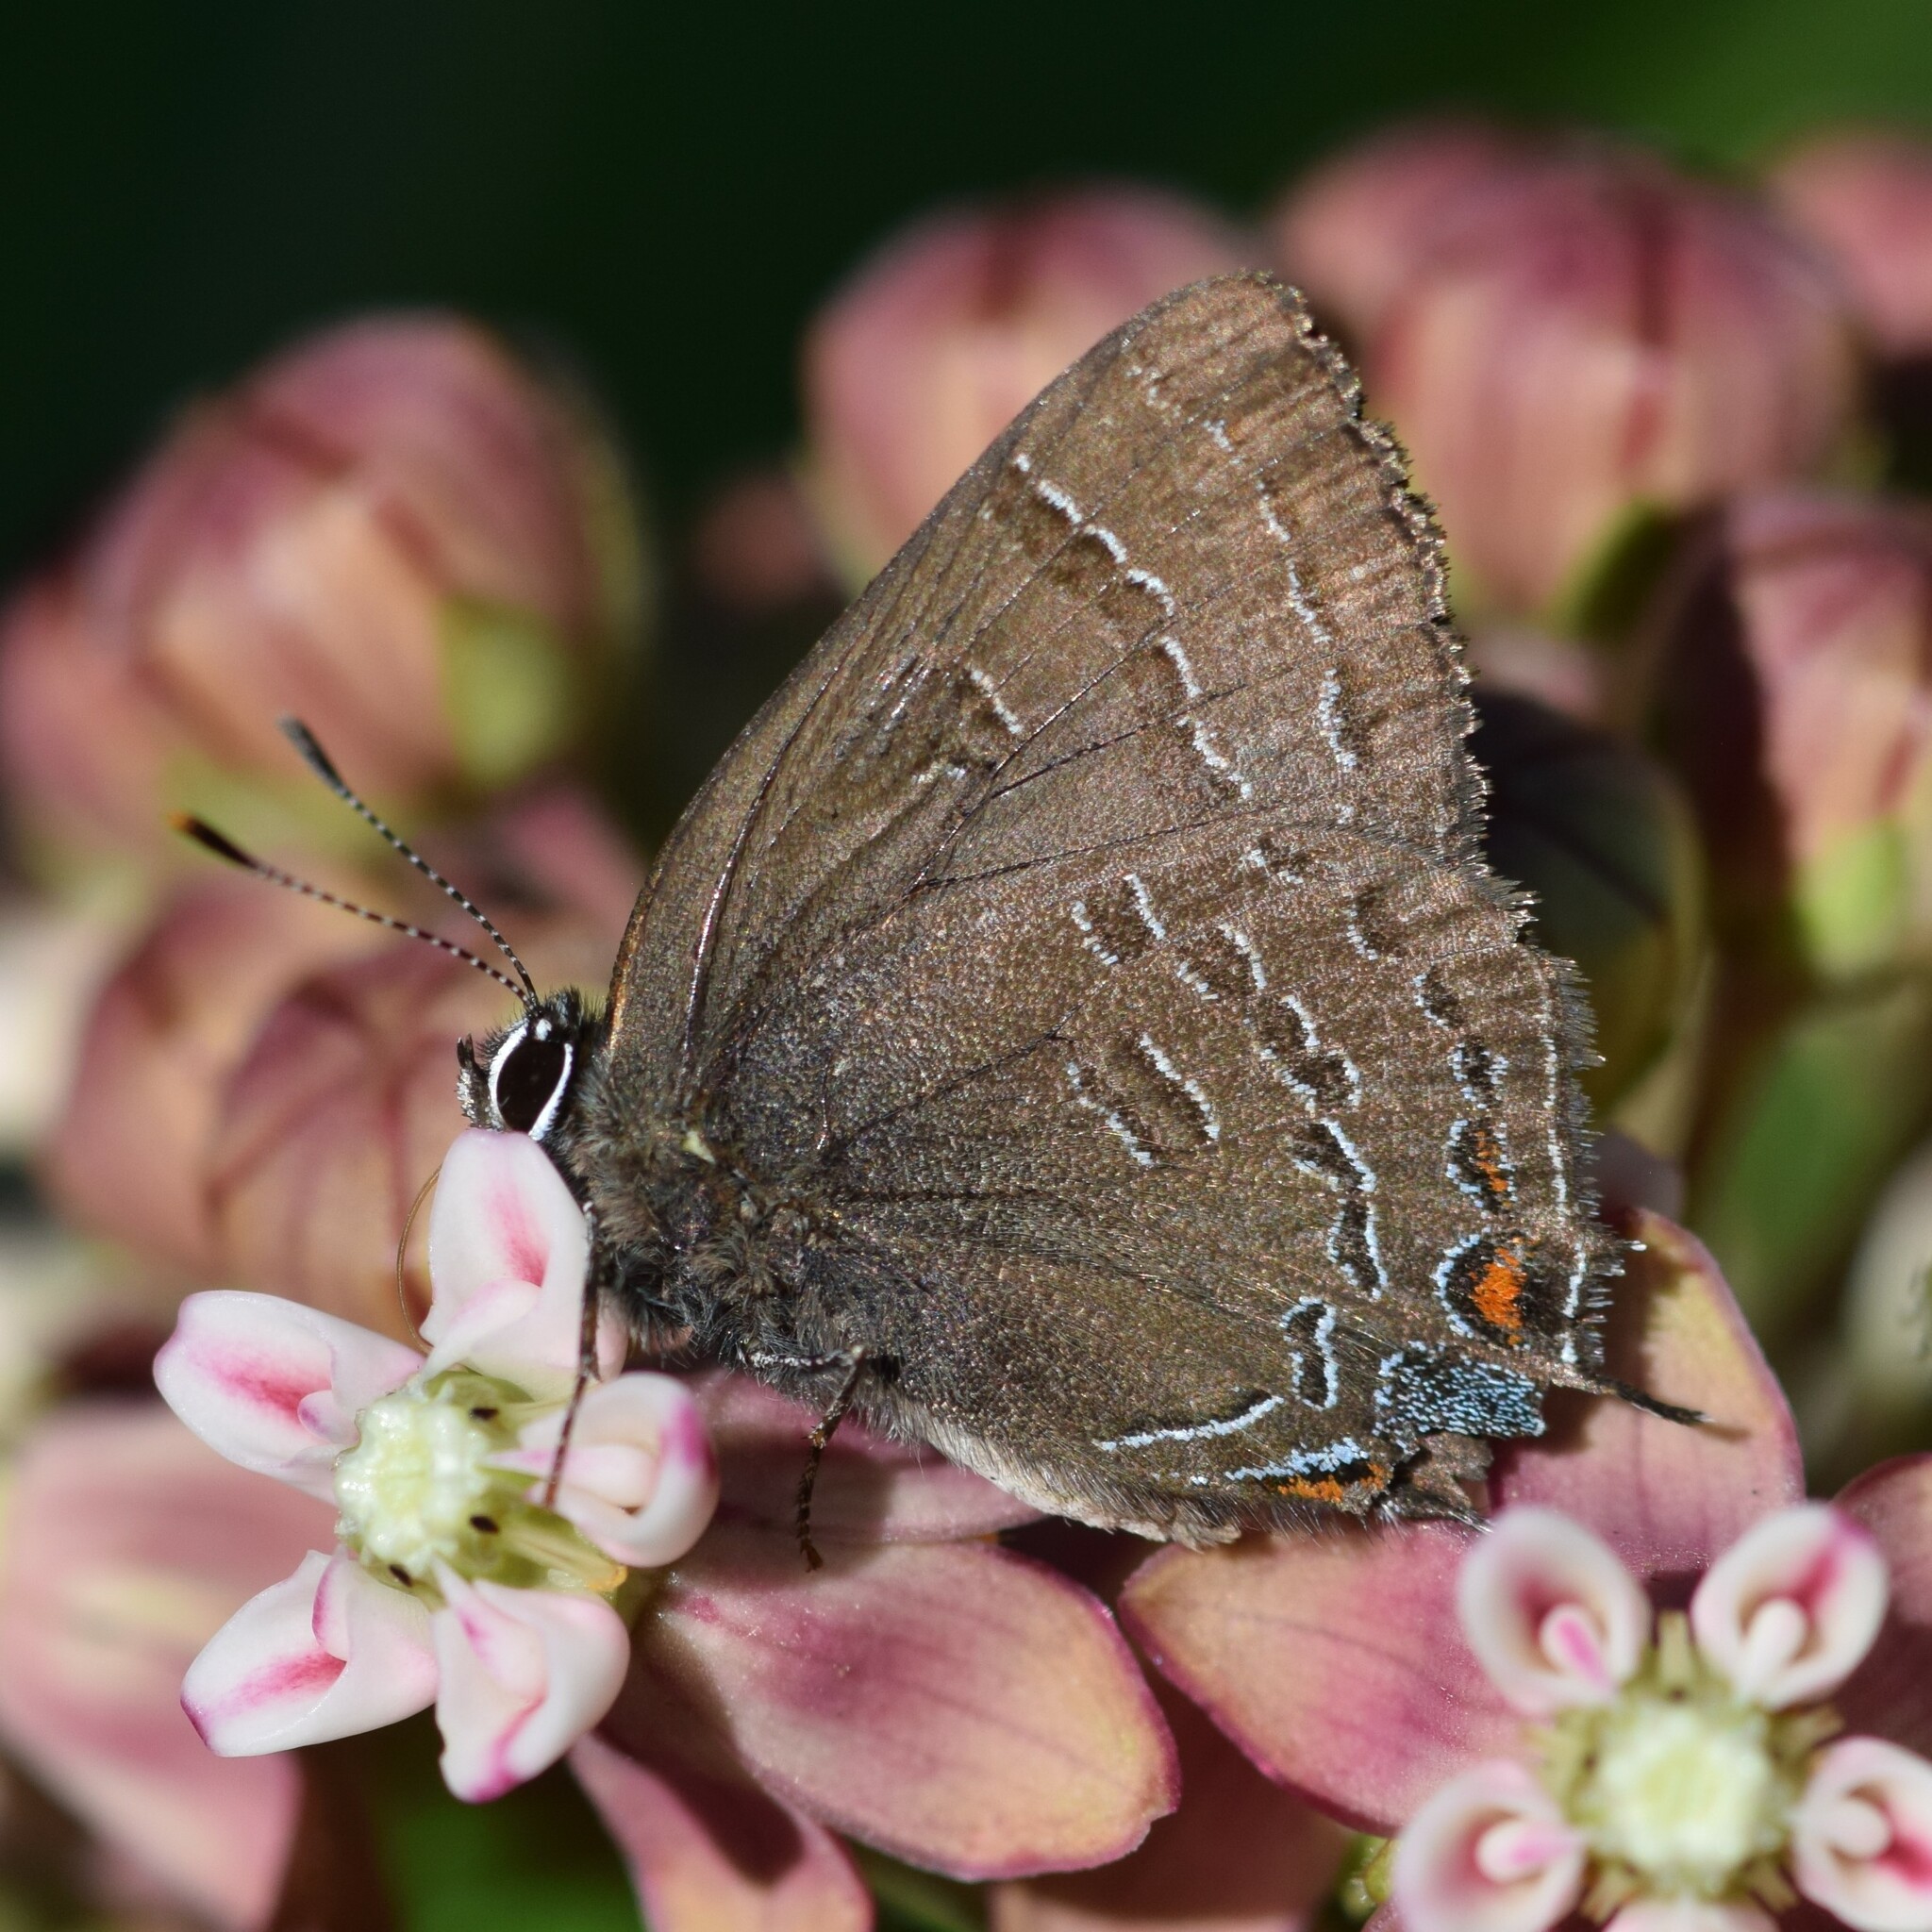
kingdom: Animalia
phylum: Arthropoda
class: Insecta
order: Lepidoptera
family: Lycaenidae
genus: Satyrium
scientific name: Satyrium calanus
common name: Banded hairstreak
